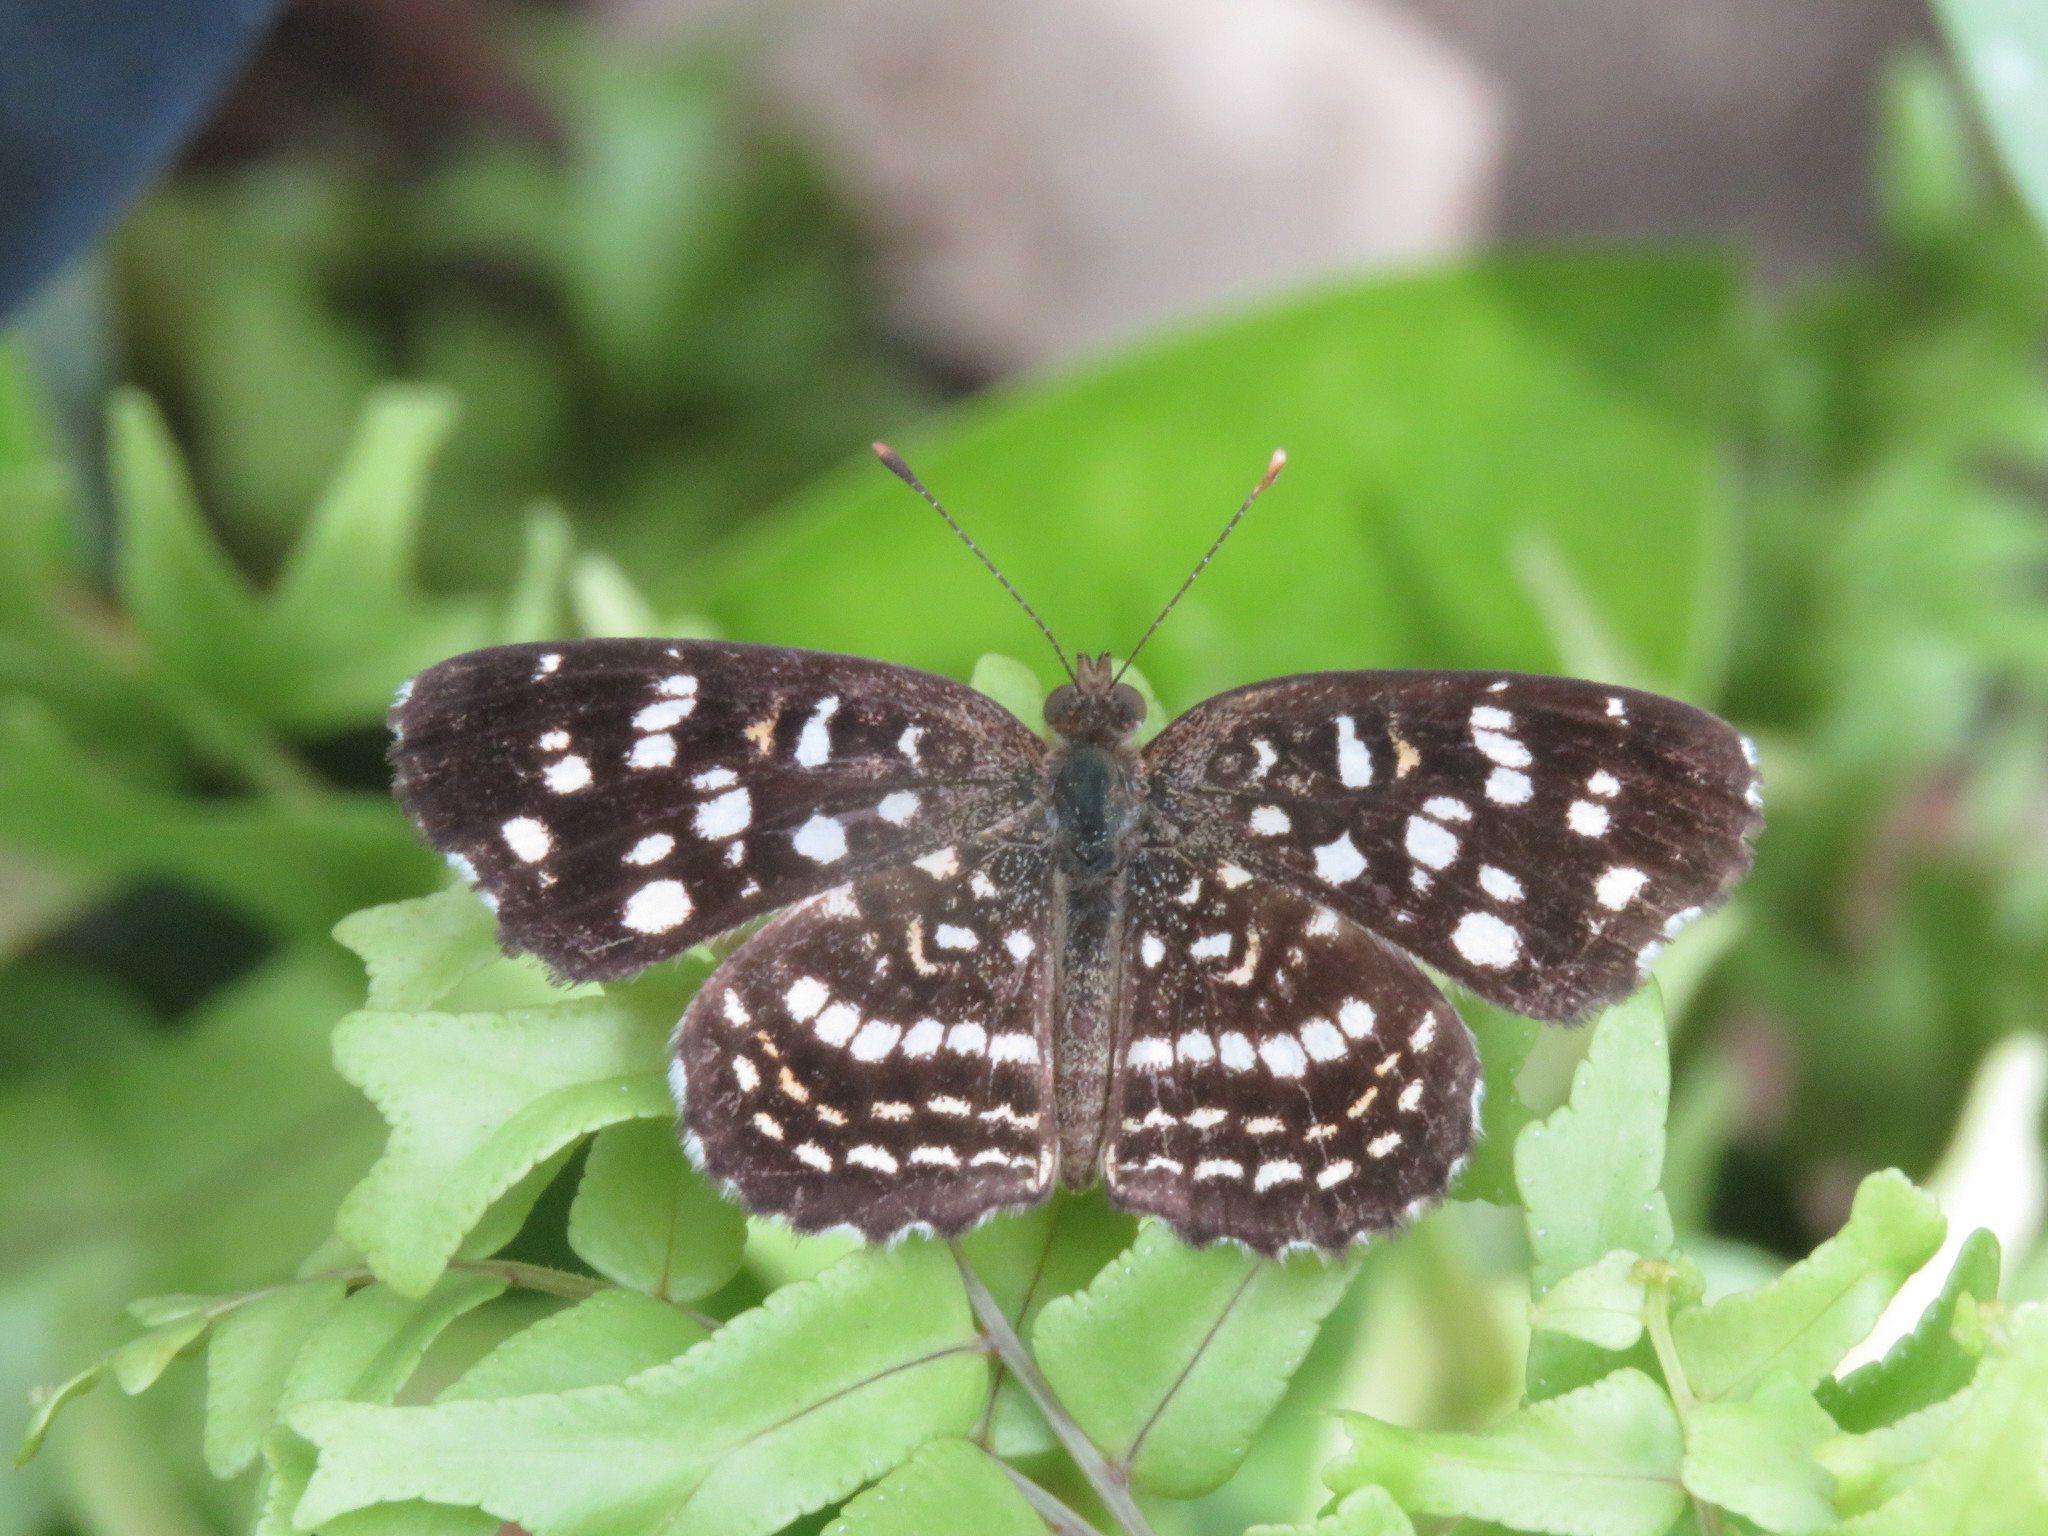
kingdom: Animalia
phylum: Arthropoda
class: Insecta
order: Lepidoptera
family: Nymphalidae
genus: Anthanassa
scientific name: Anthanassa hermas
